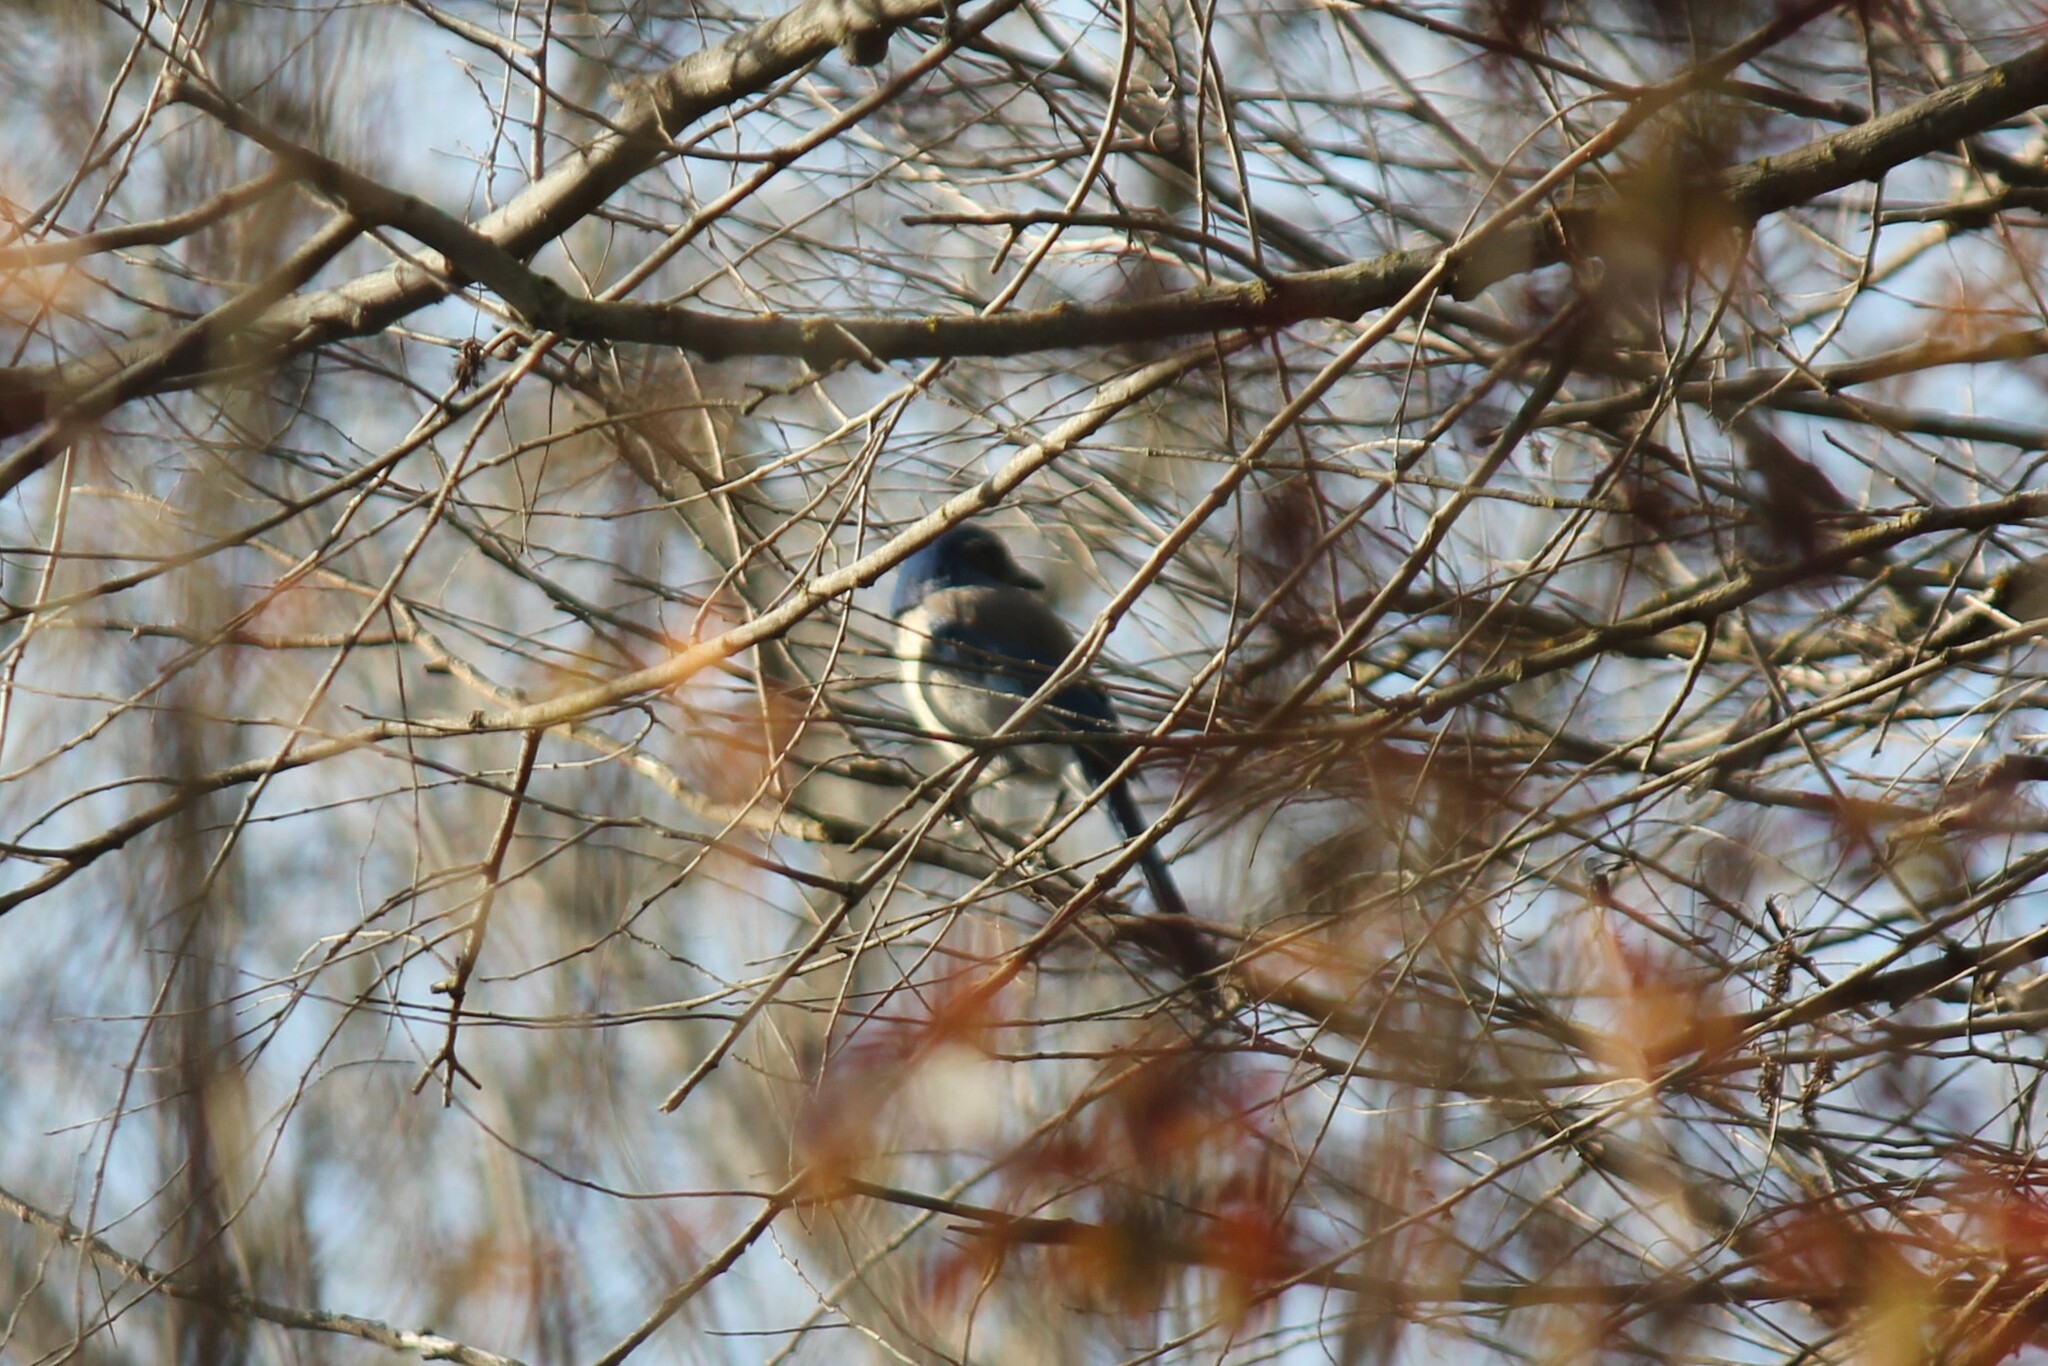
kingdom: Animalia
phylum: Chordata
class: Aves
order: Passeriformes
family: Corvidae
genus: Aphelocoma
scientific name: Aphelocoma californica
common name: California scrub-jay
